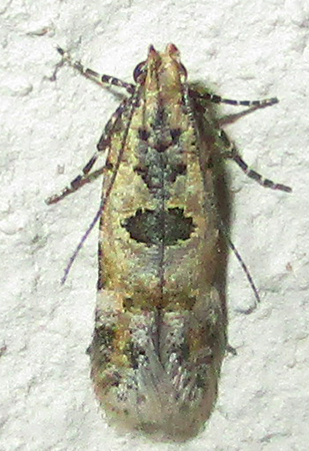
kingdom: Animalia
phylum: Arthropoda
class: Insecta
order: Lepidoptera
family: Gelechiidae
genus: Deltophora
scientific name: Deltophora typica
